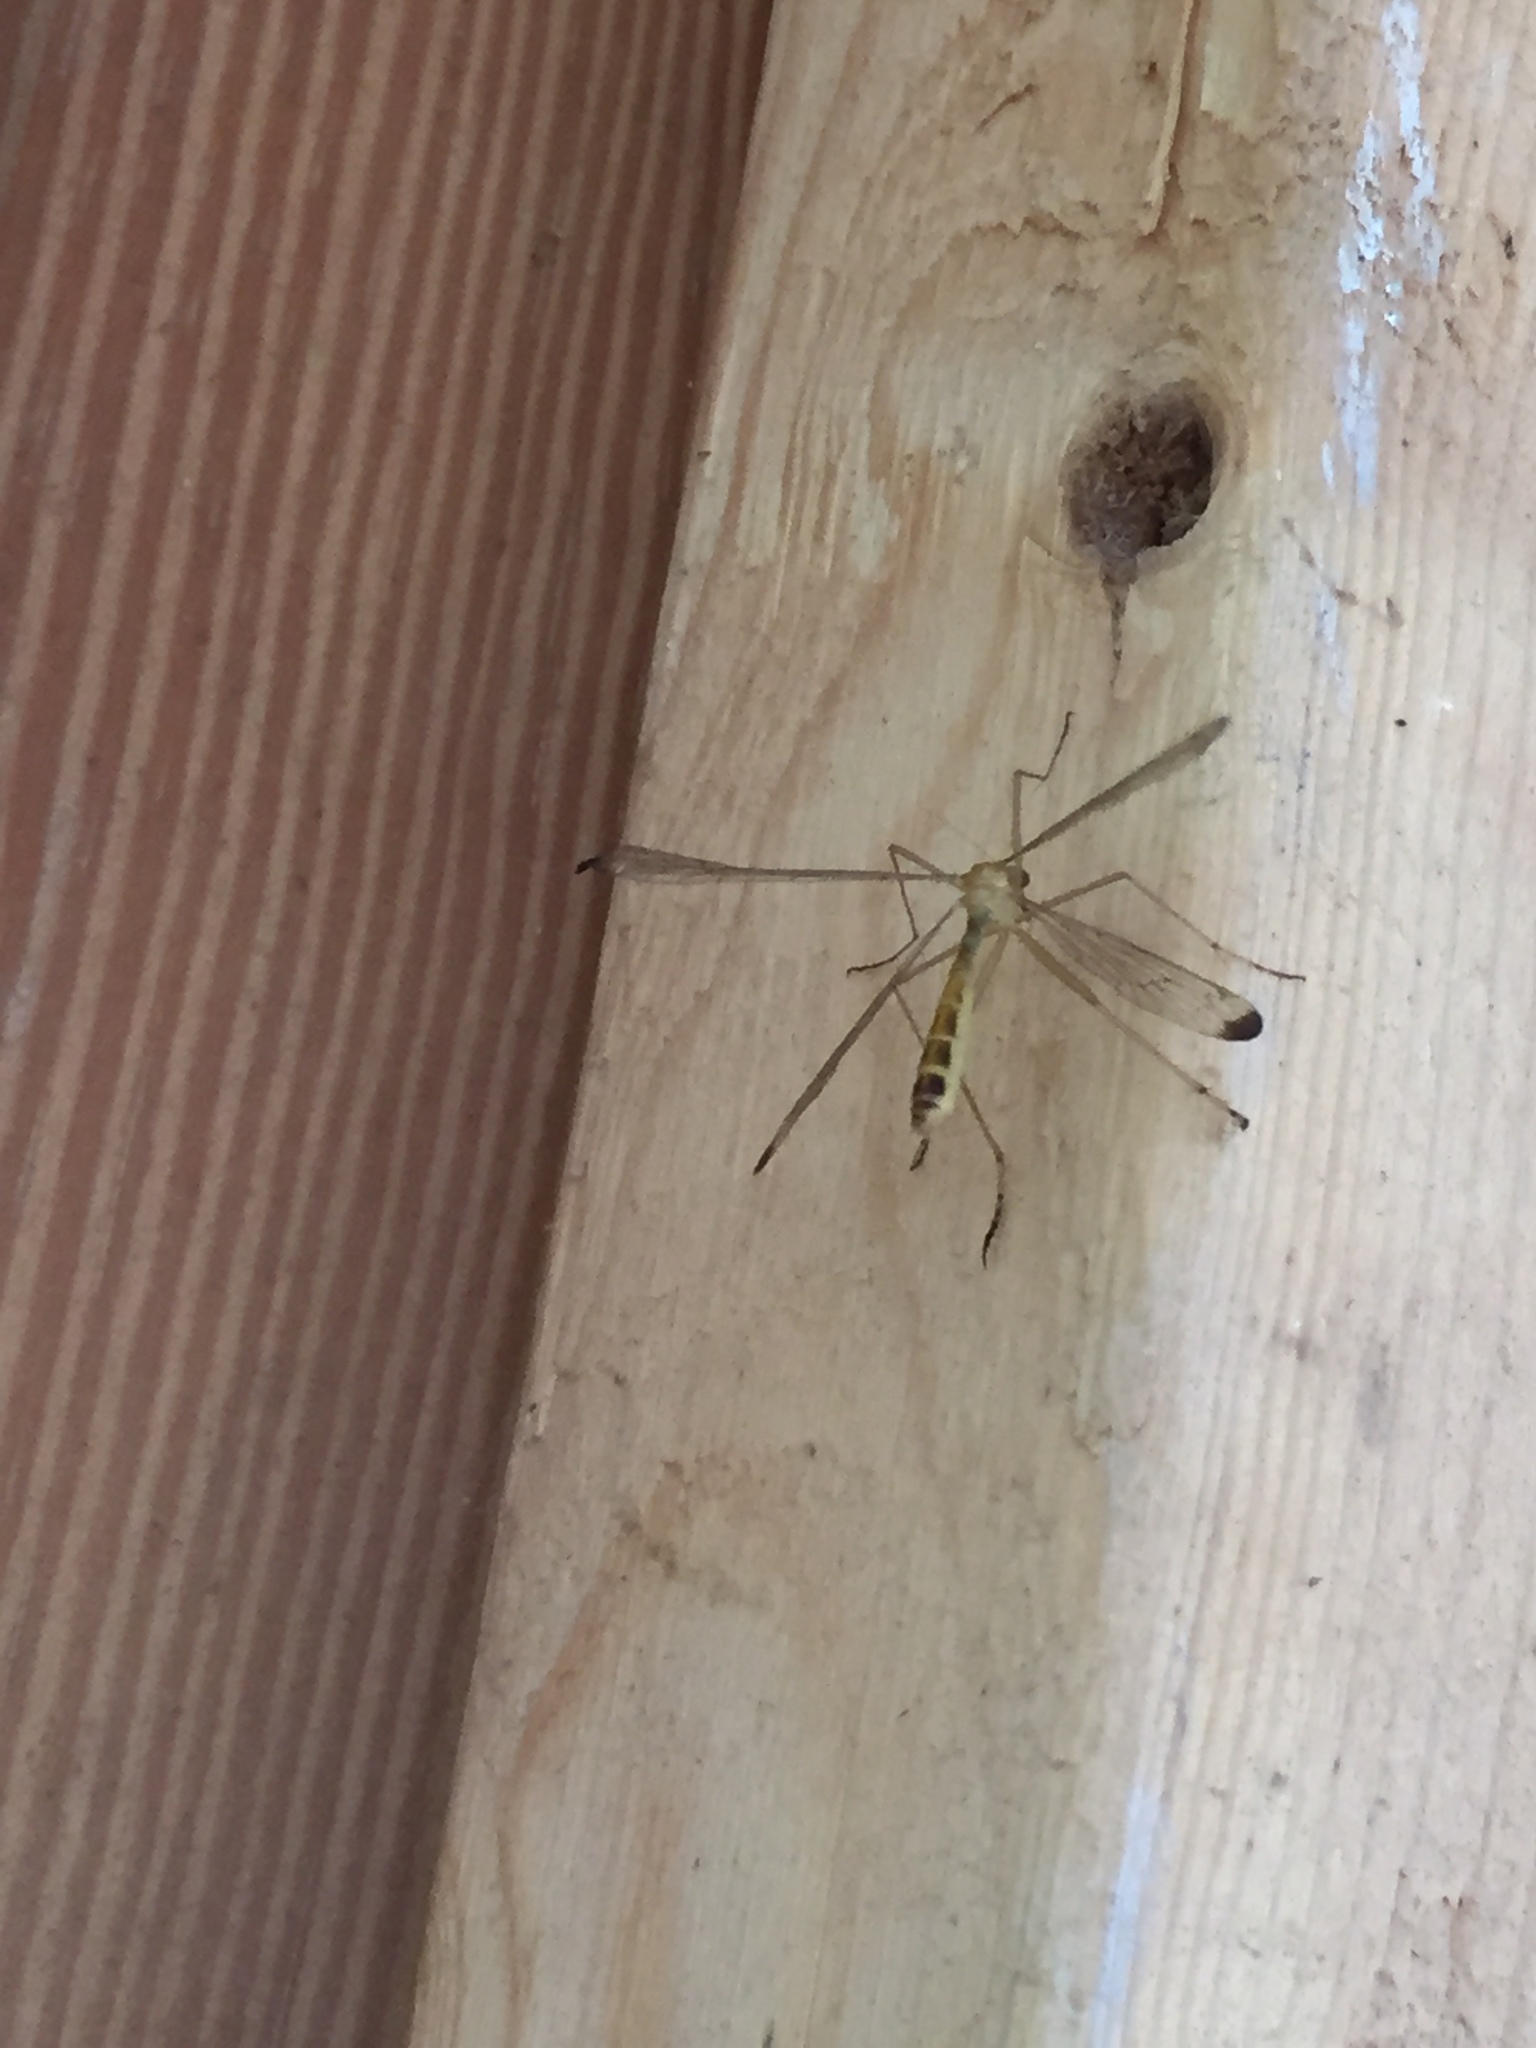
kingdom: Animalia
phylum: Arthropoda
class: Insecta
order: Mecoptera
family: Bittacidae
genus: Hylobittacus
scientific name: Hylobittacus apicalis
